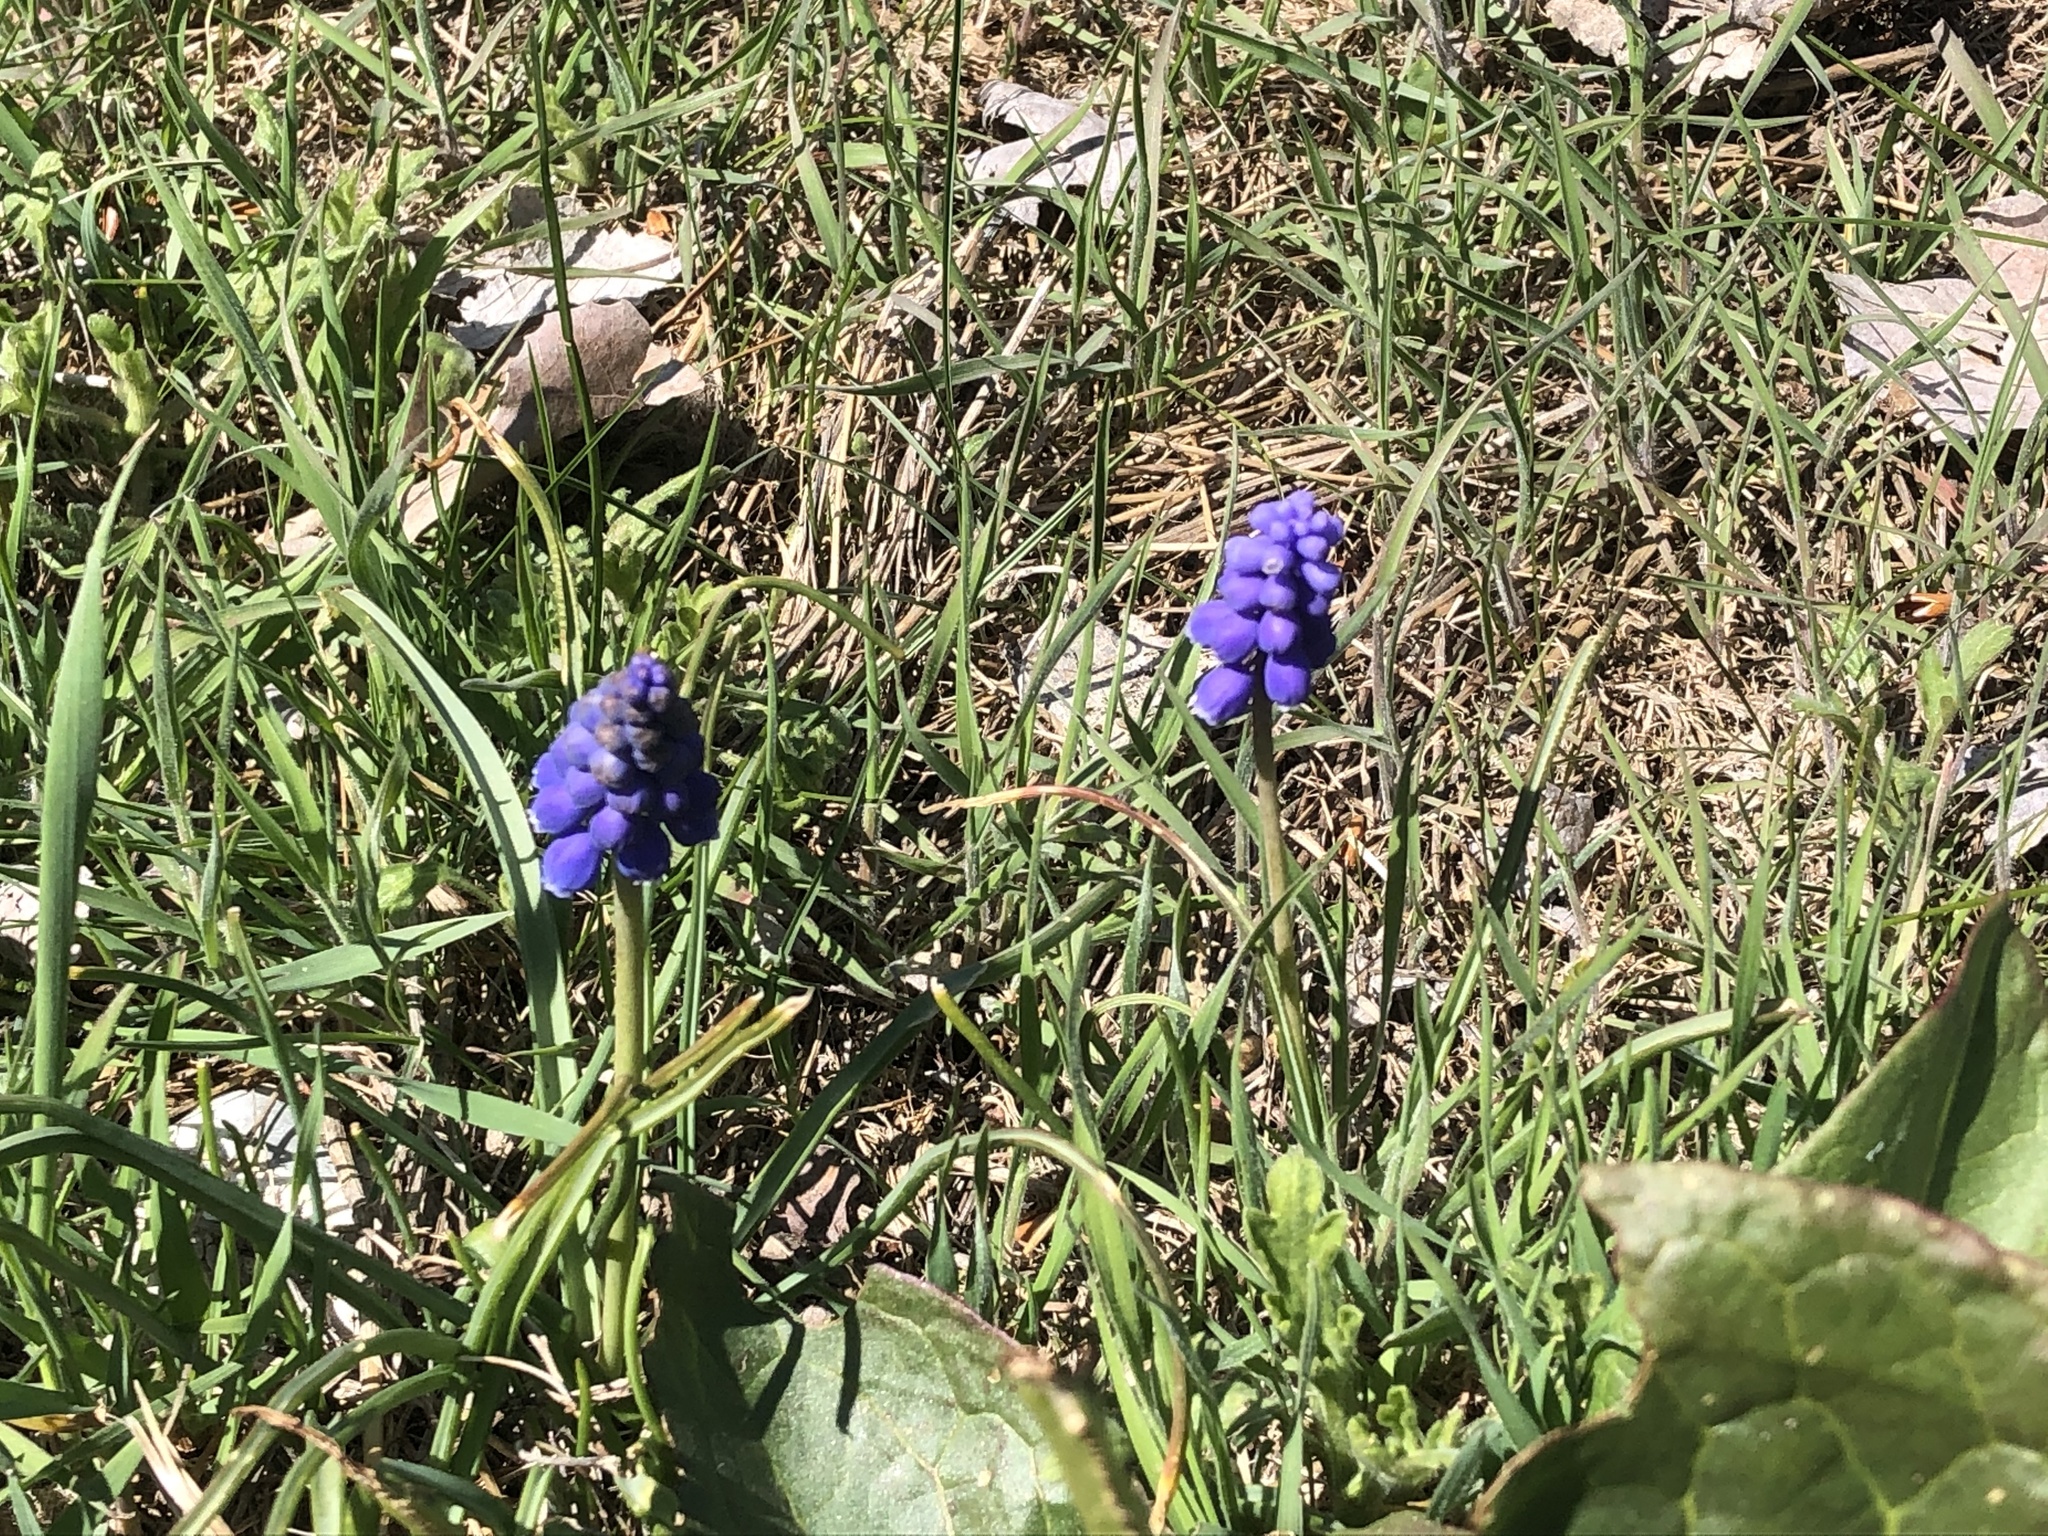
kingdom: Plantae
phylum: Tracheophyta
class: Liliopsida
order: Asparagales
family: Asparagaceae
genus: Muscari
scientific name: Muscari armeniacum
